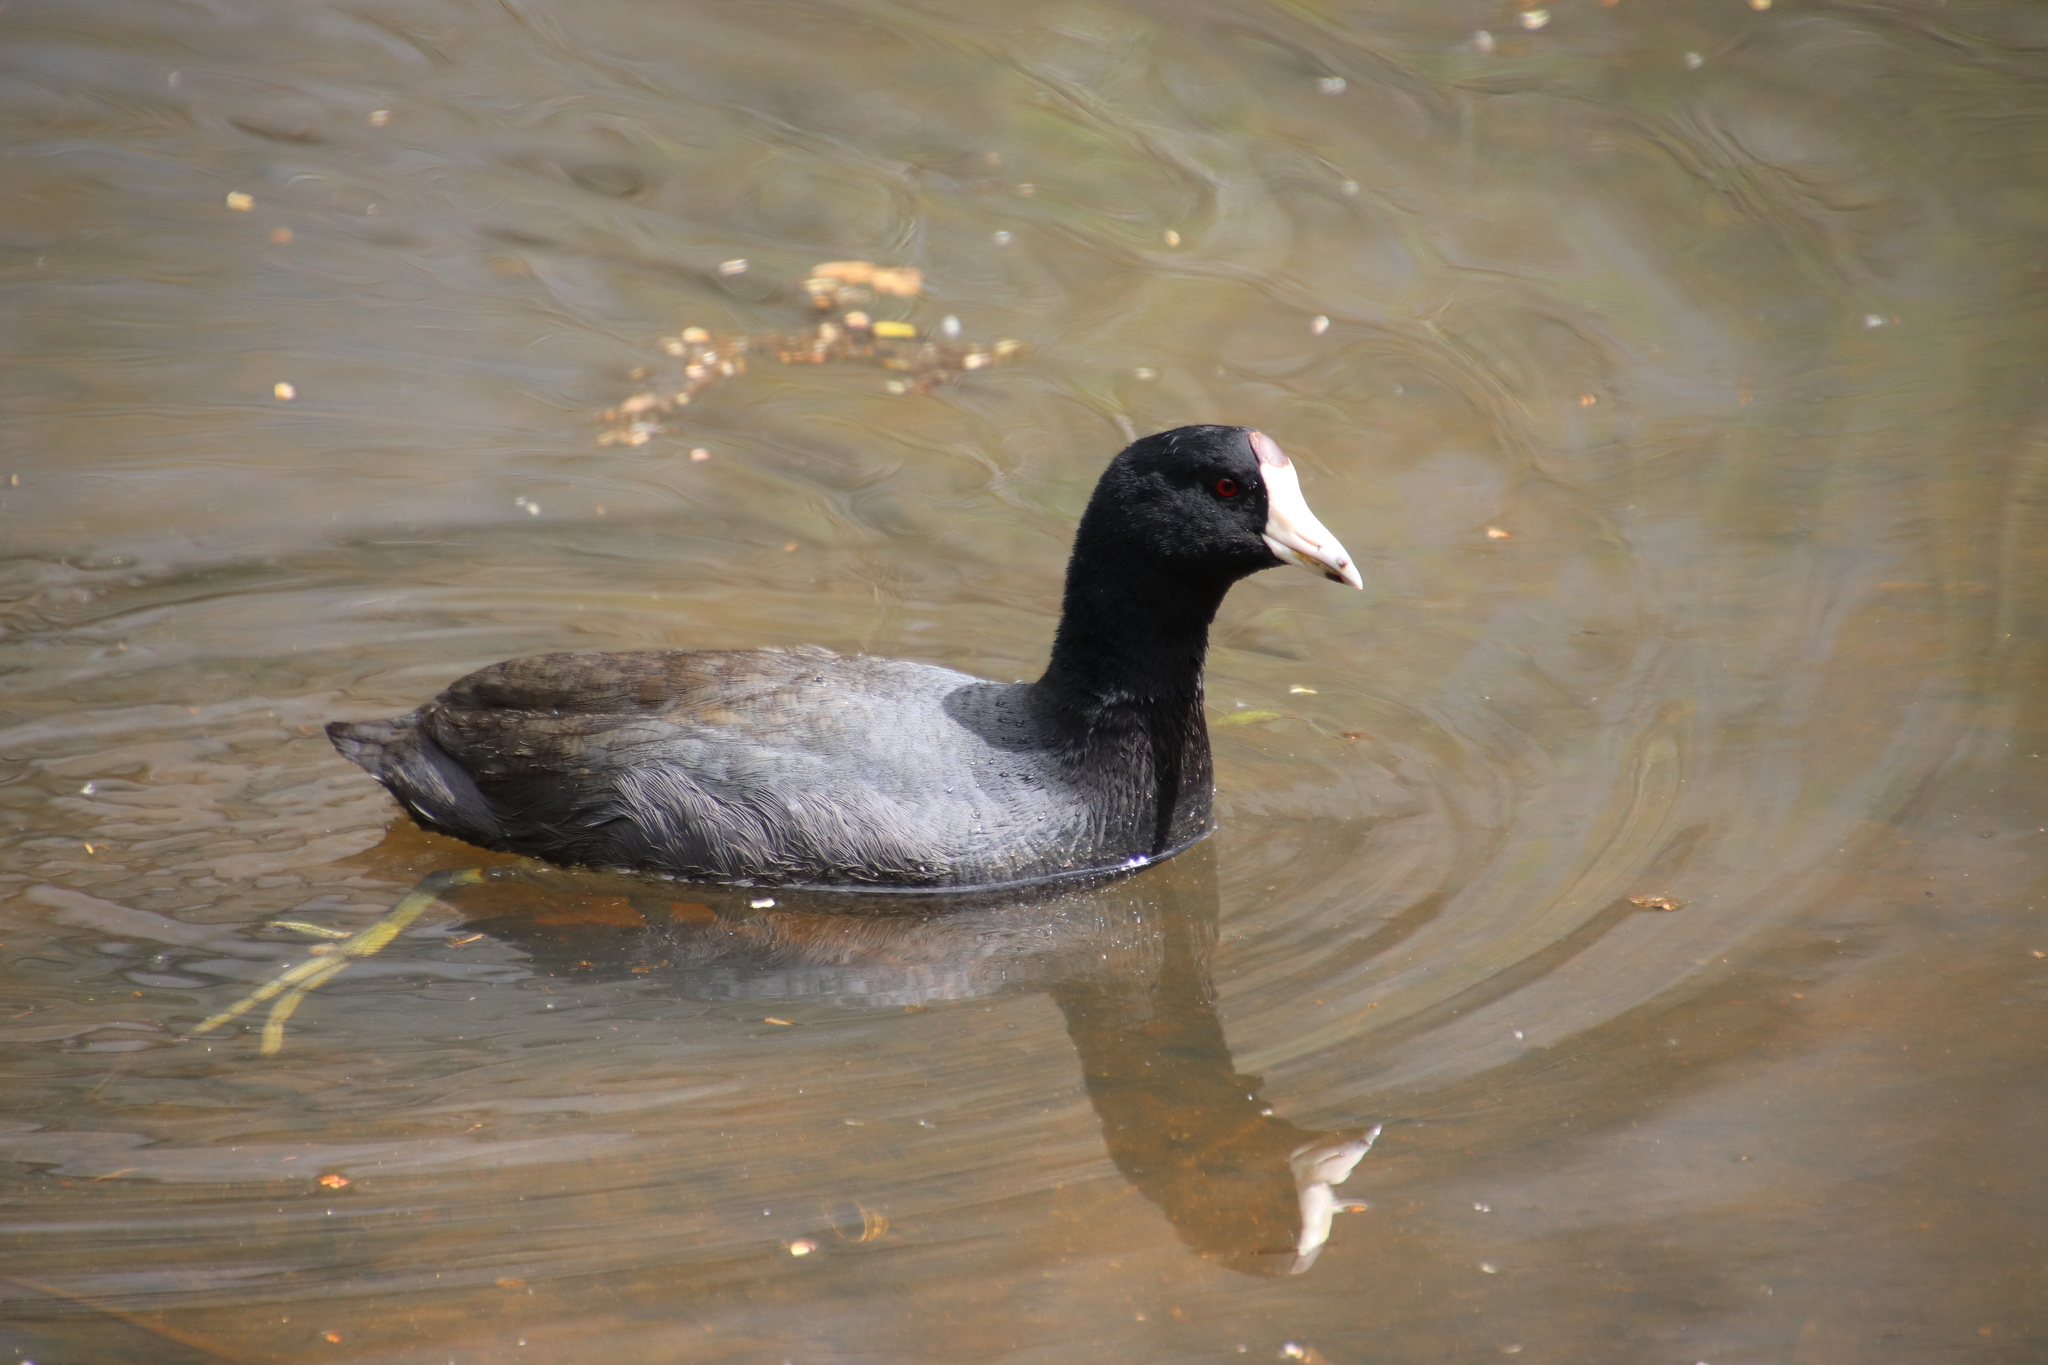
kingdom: Animalia
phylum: Chordata
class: Aves
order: Gruiformes
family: Rallidae
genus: Fulica
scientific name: Fulica americana
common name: American coot
